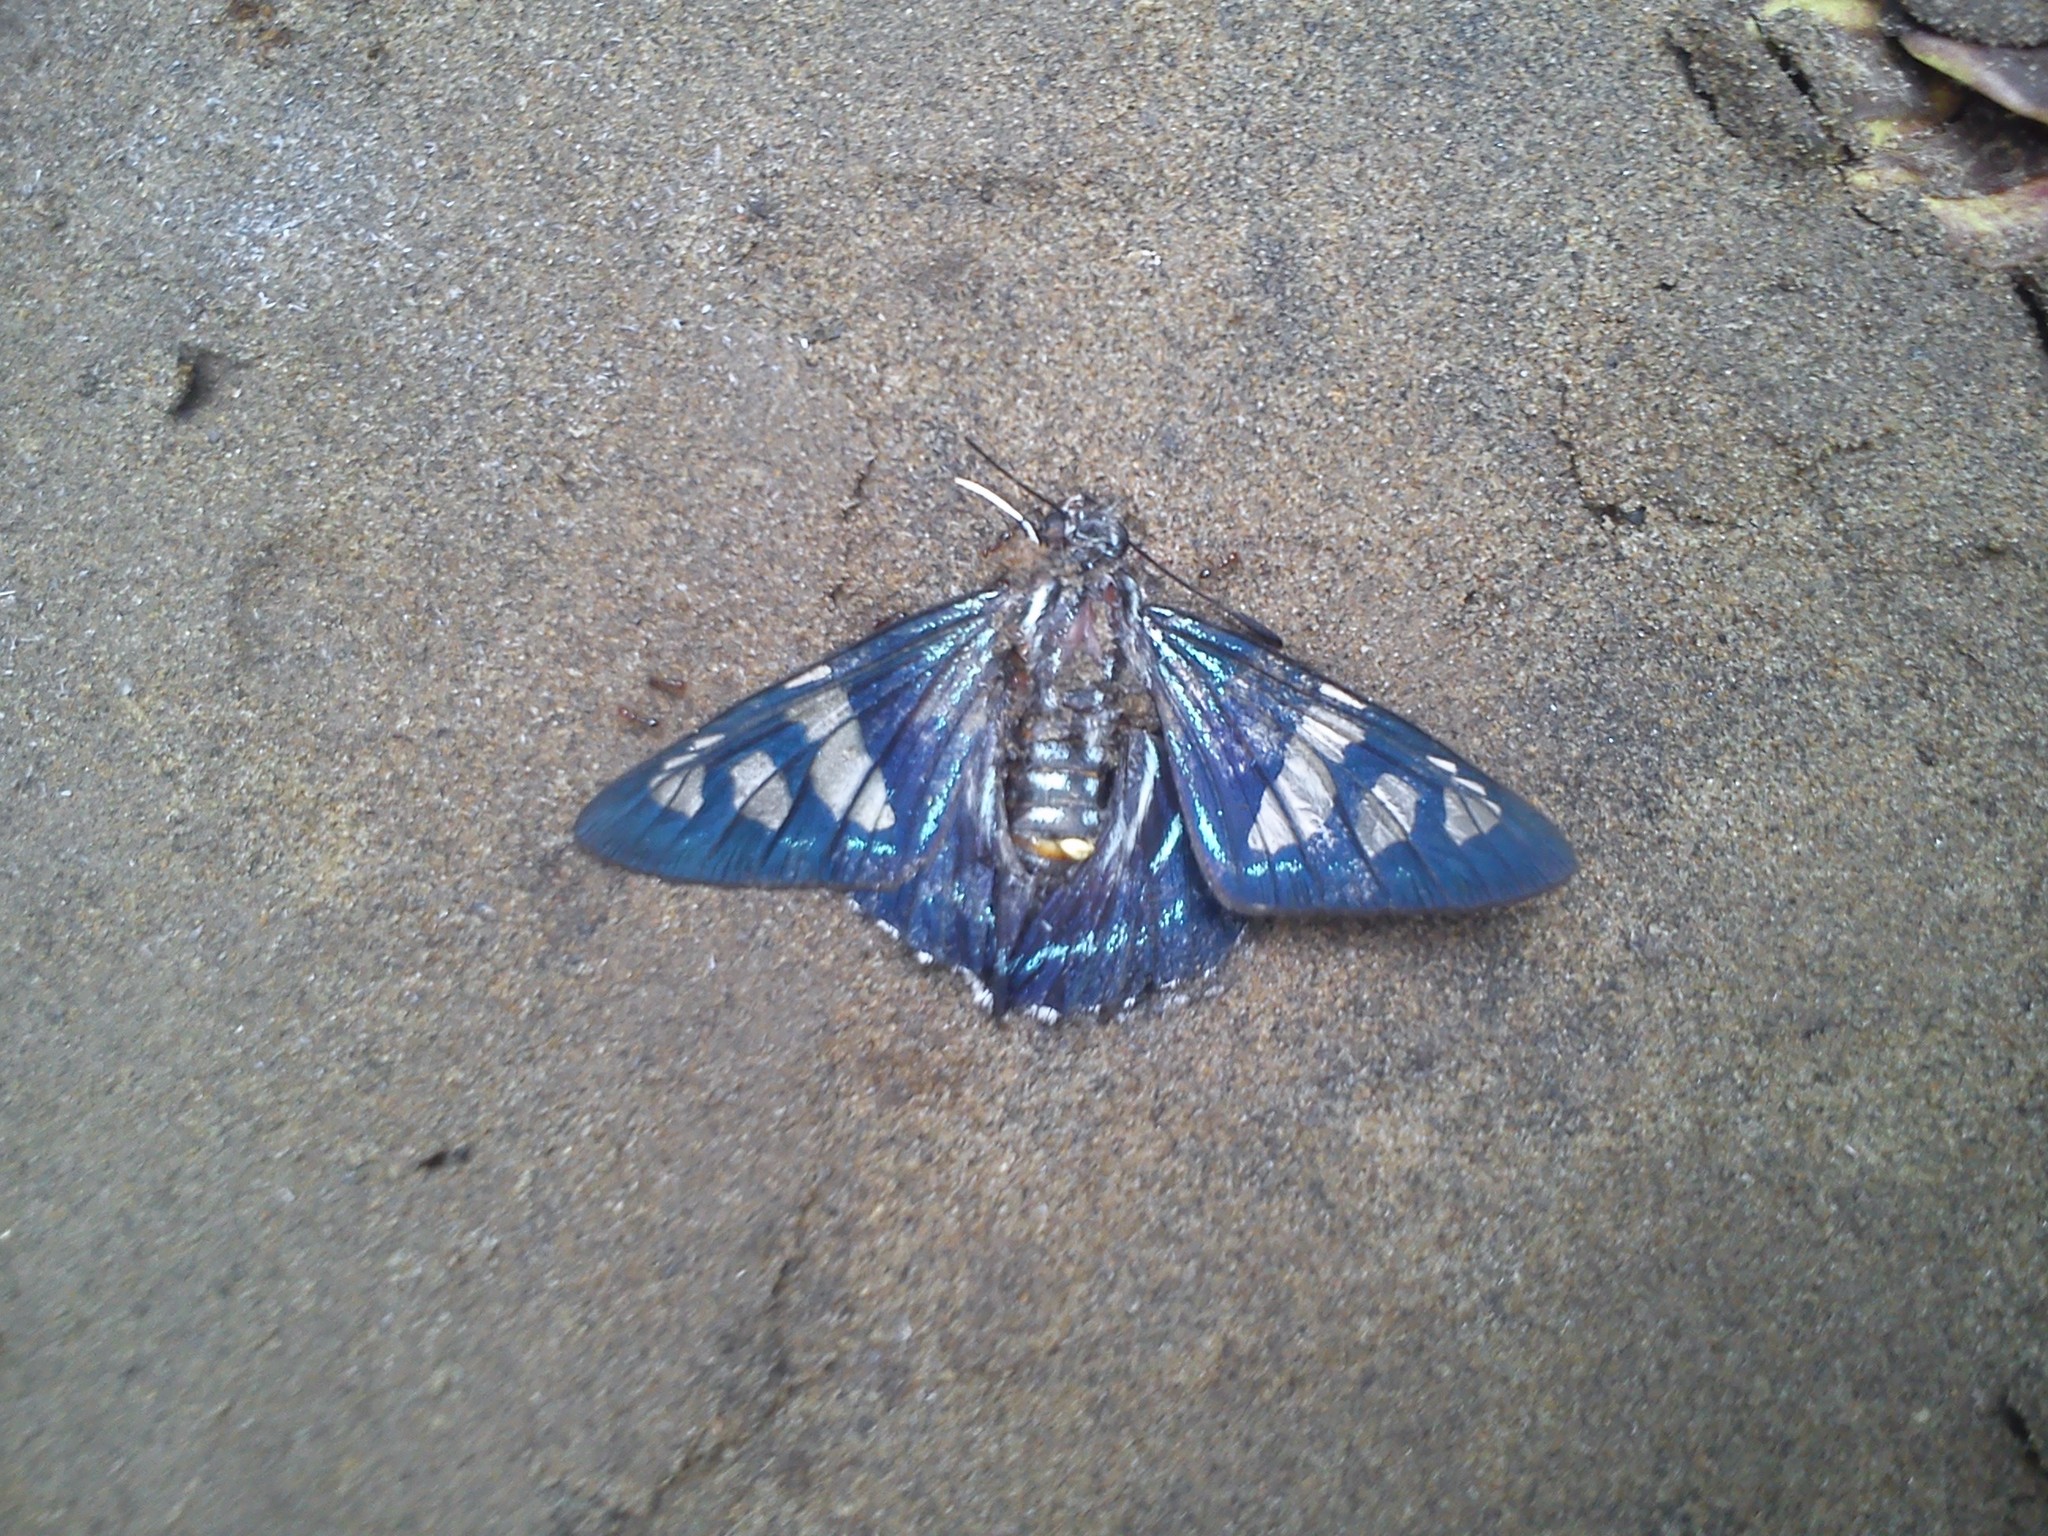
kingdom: Animalia
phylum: Arthropoda
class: Insecta
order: Lepidoptera
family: Hesperiidae
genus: Phocides
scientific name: Phocides pigmalion
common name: Mangrove skipper
